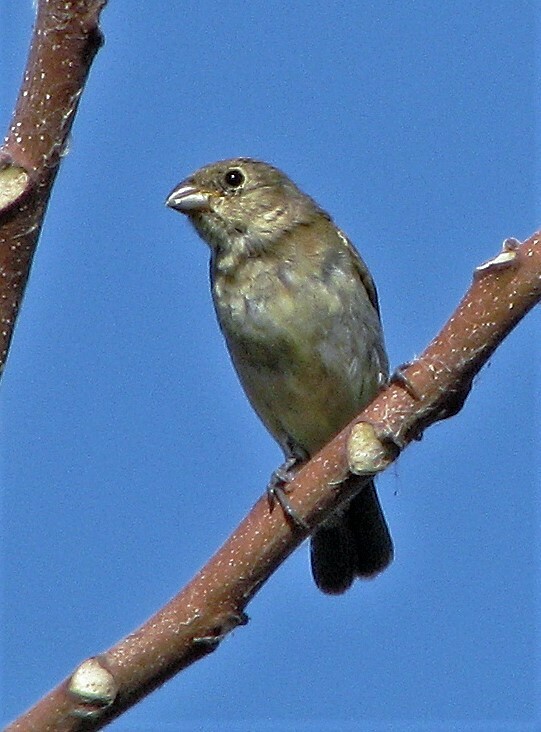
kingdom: Animalia
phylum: Chordata
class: Aves
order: Passeriformes
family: Thraupidae
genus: Sporophila
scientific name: Sporophila caerulescens
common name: Double-collared seedeater
